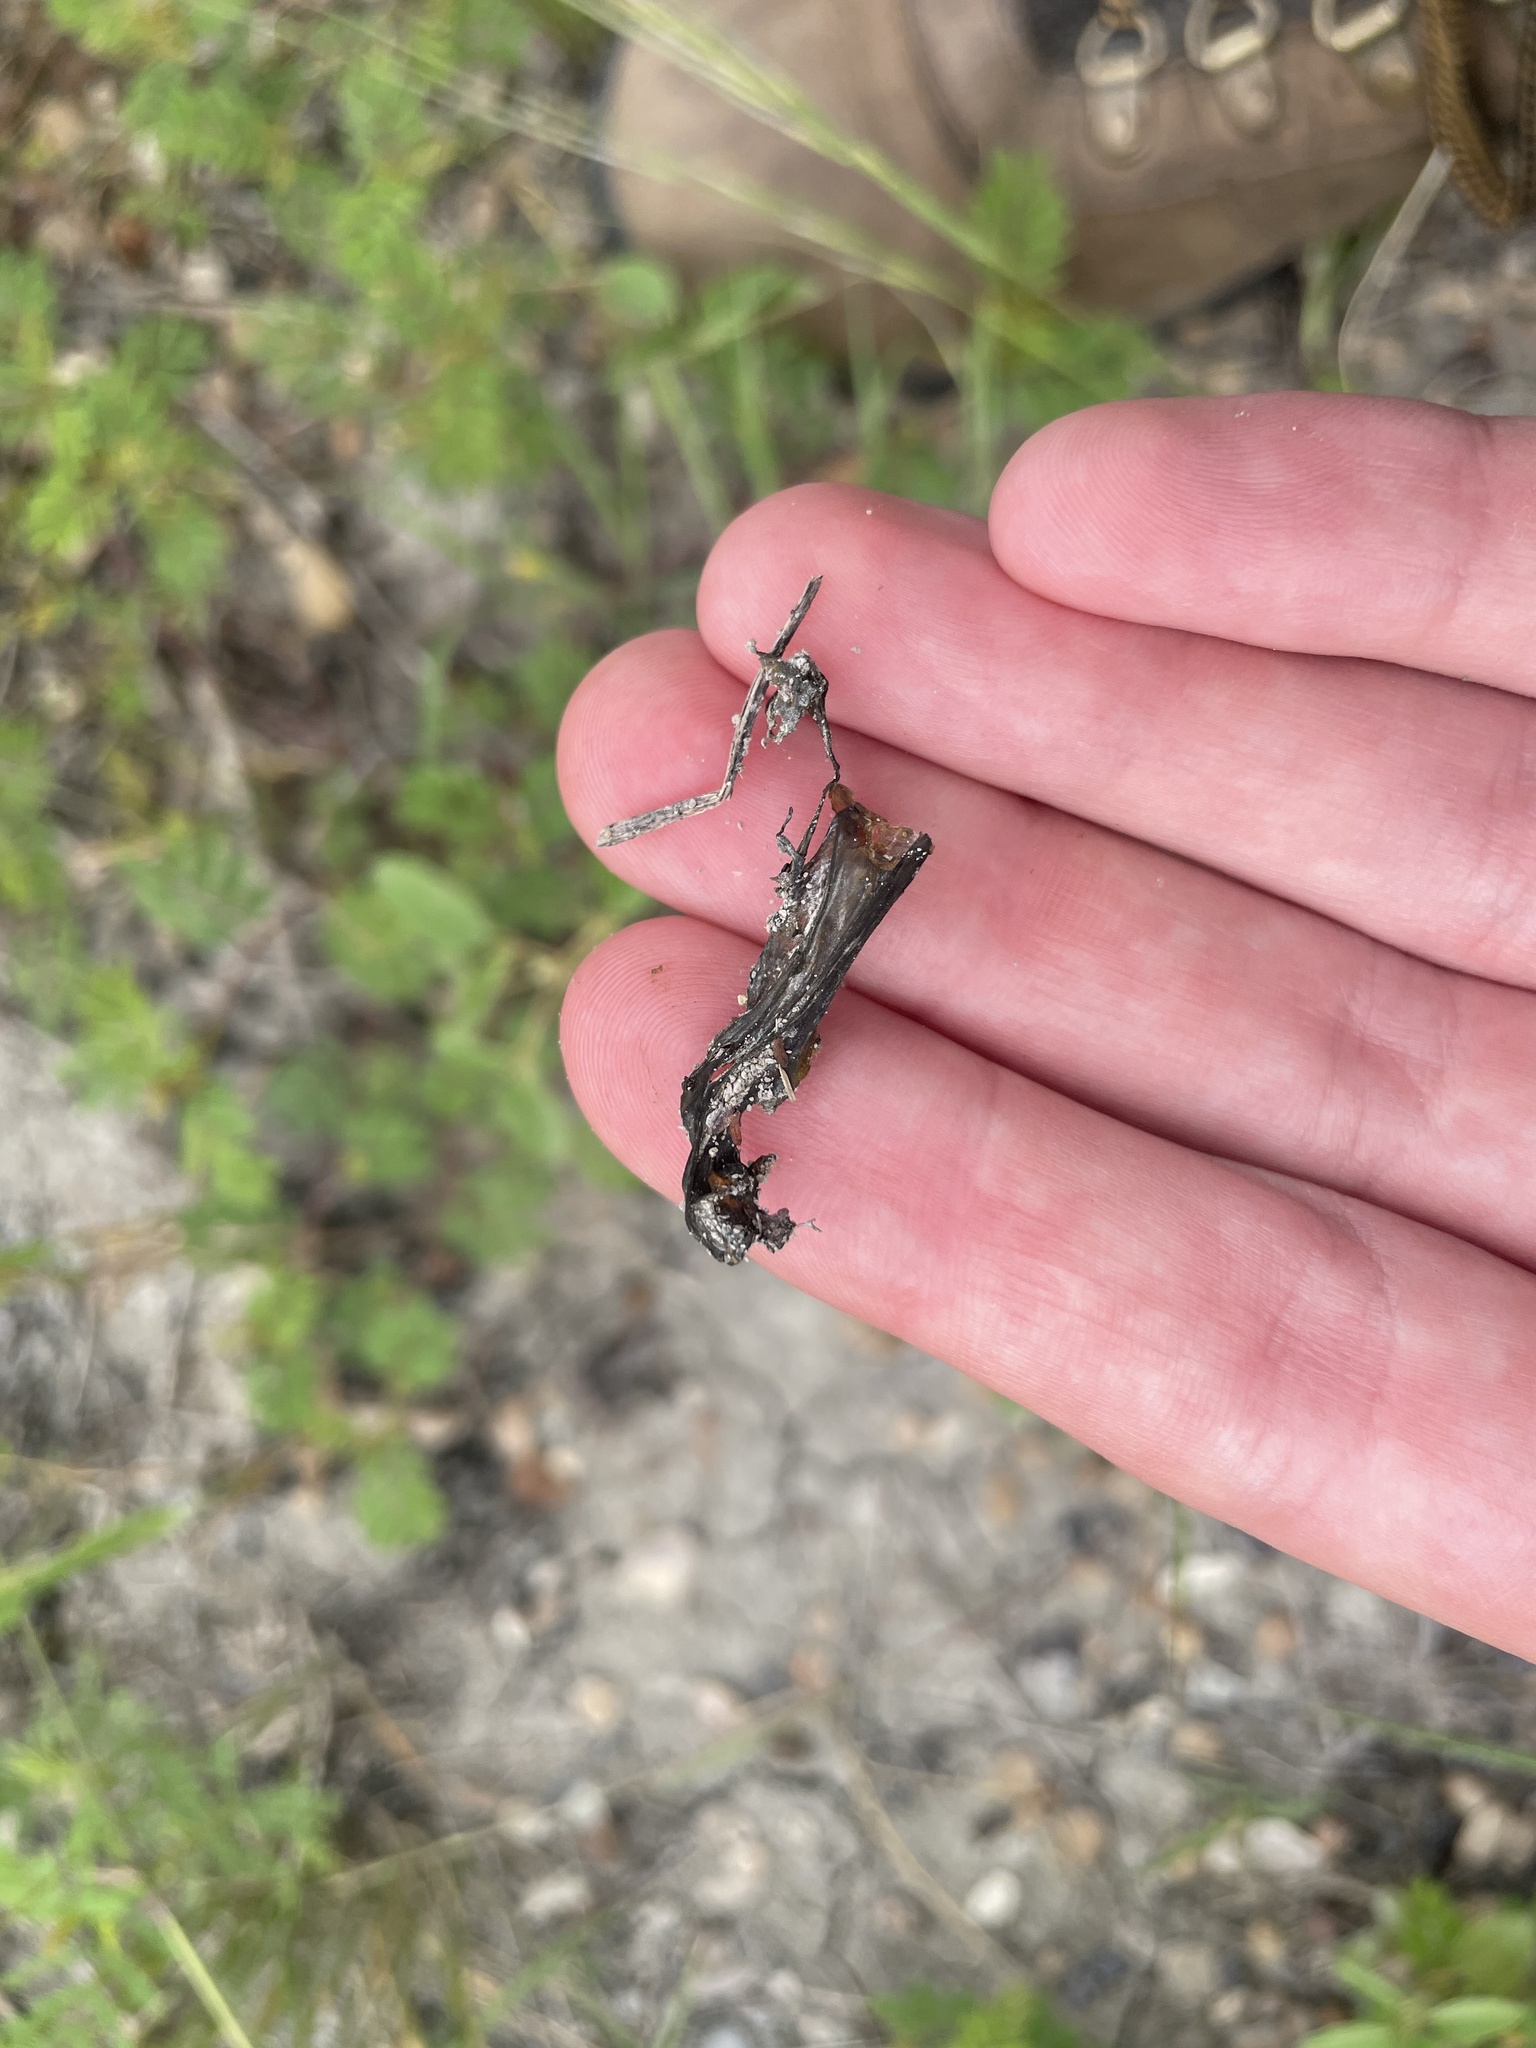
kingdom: Bacteria
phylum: Cyanobacteria
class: Cyanobacteriia
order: Cyanobacteriales
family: Nostocaceae
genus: Nostoc
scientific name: Nostoc commune
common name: Star jelly
